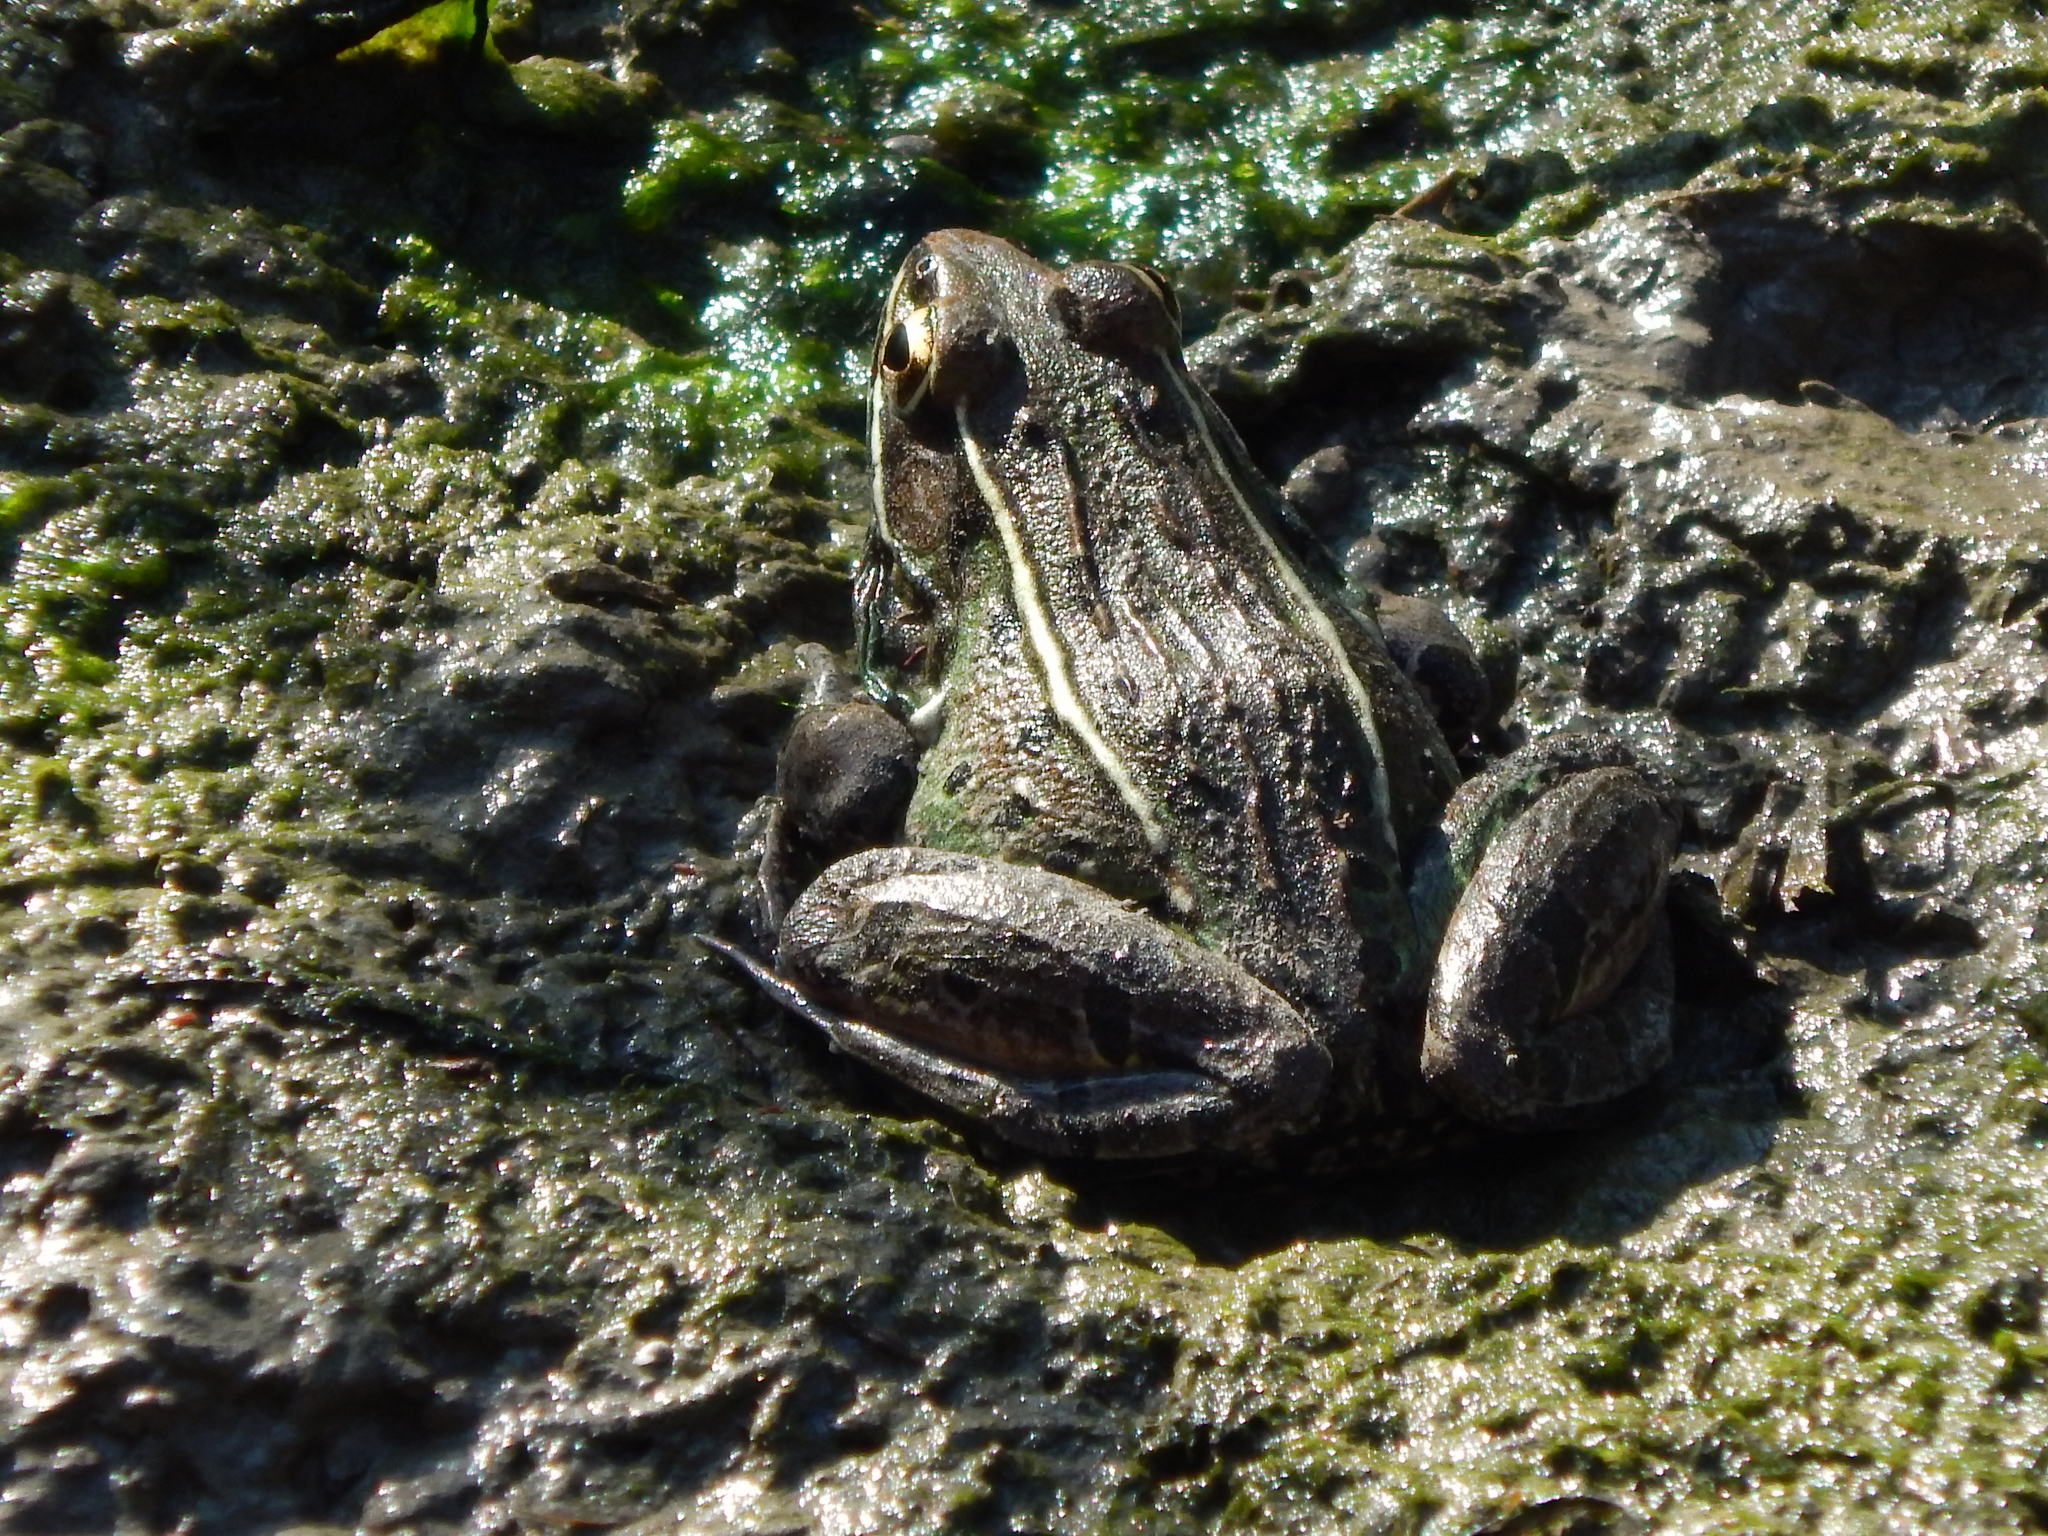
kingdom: Animalia
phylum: Chordata
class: Amphibia
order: Anura
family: Ranidae
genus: Lithobates
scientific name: Lithobates kauffeldi
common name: Mid-atlantic coast leopard frog
